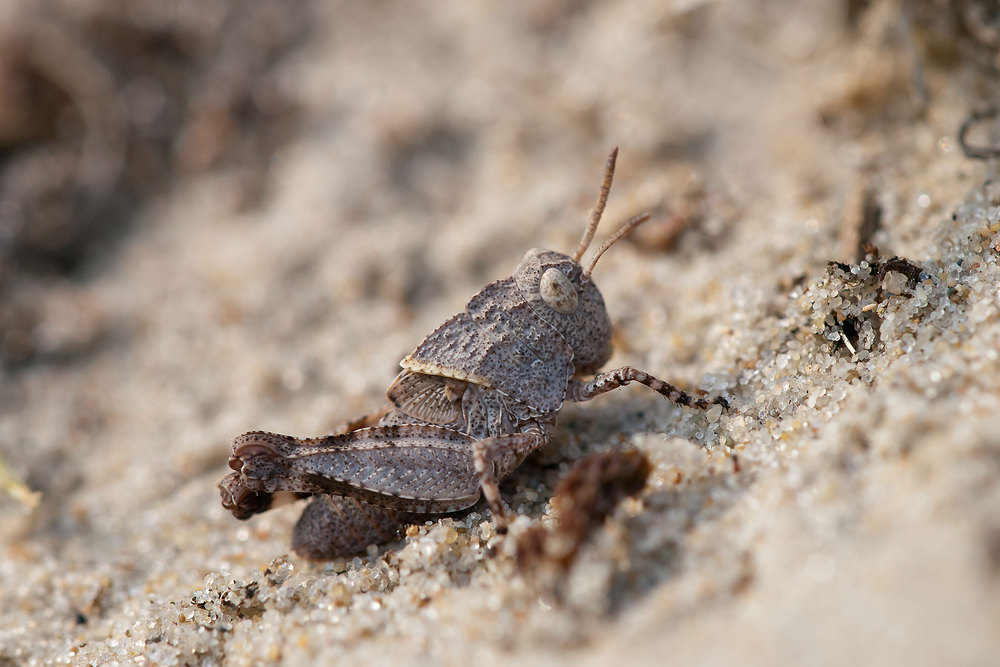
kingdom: Animalia
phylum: Arthropoda
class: Insecta
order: Orthoptera
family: Acrididae
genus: Oedipoda
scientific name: Oedipoda caerulescens
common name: Blue-winged grasshopper
